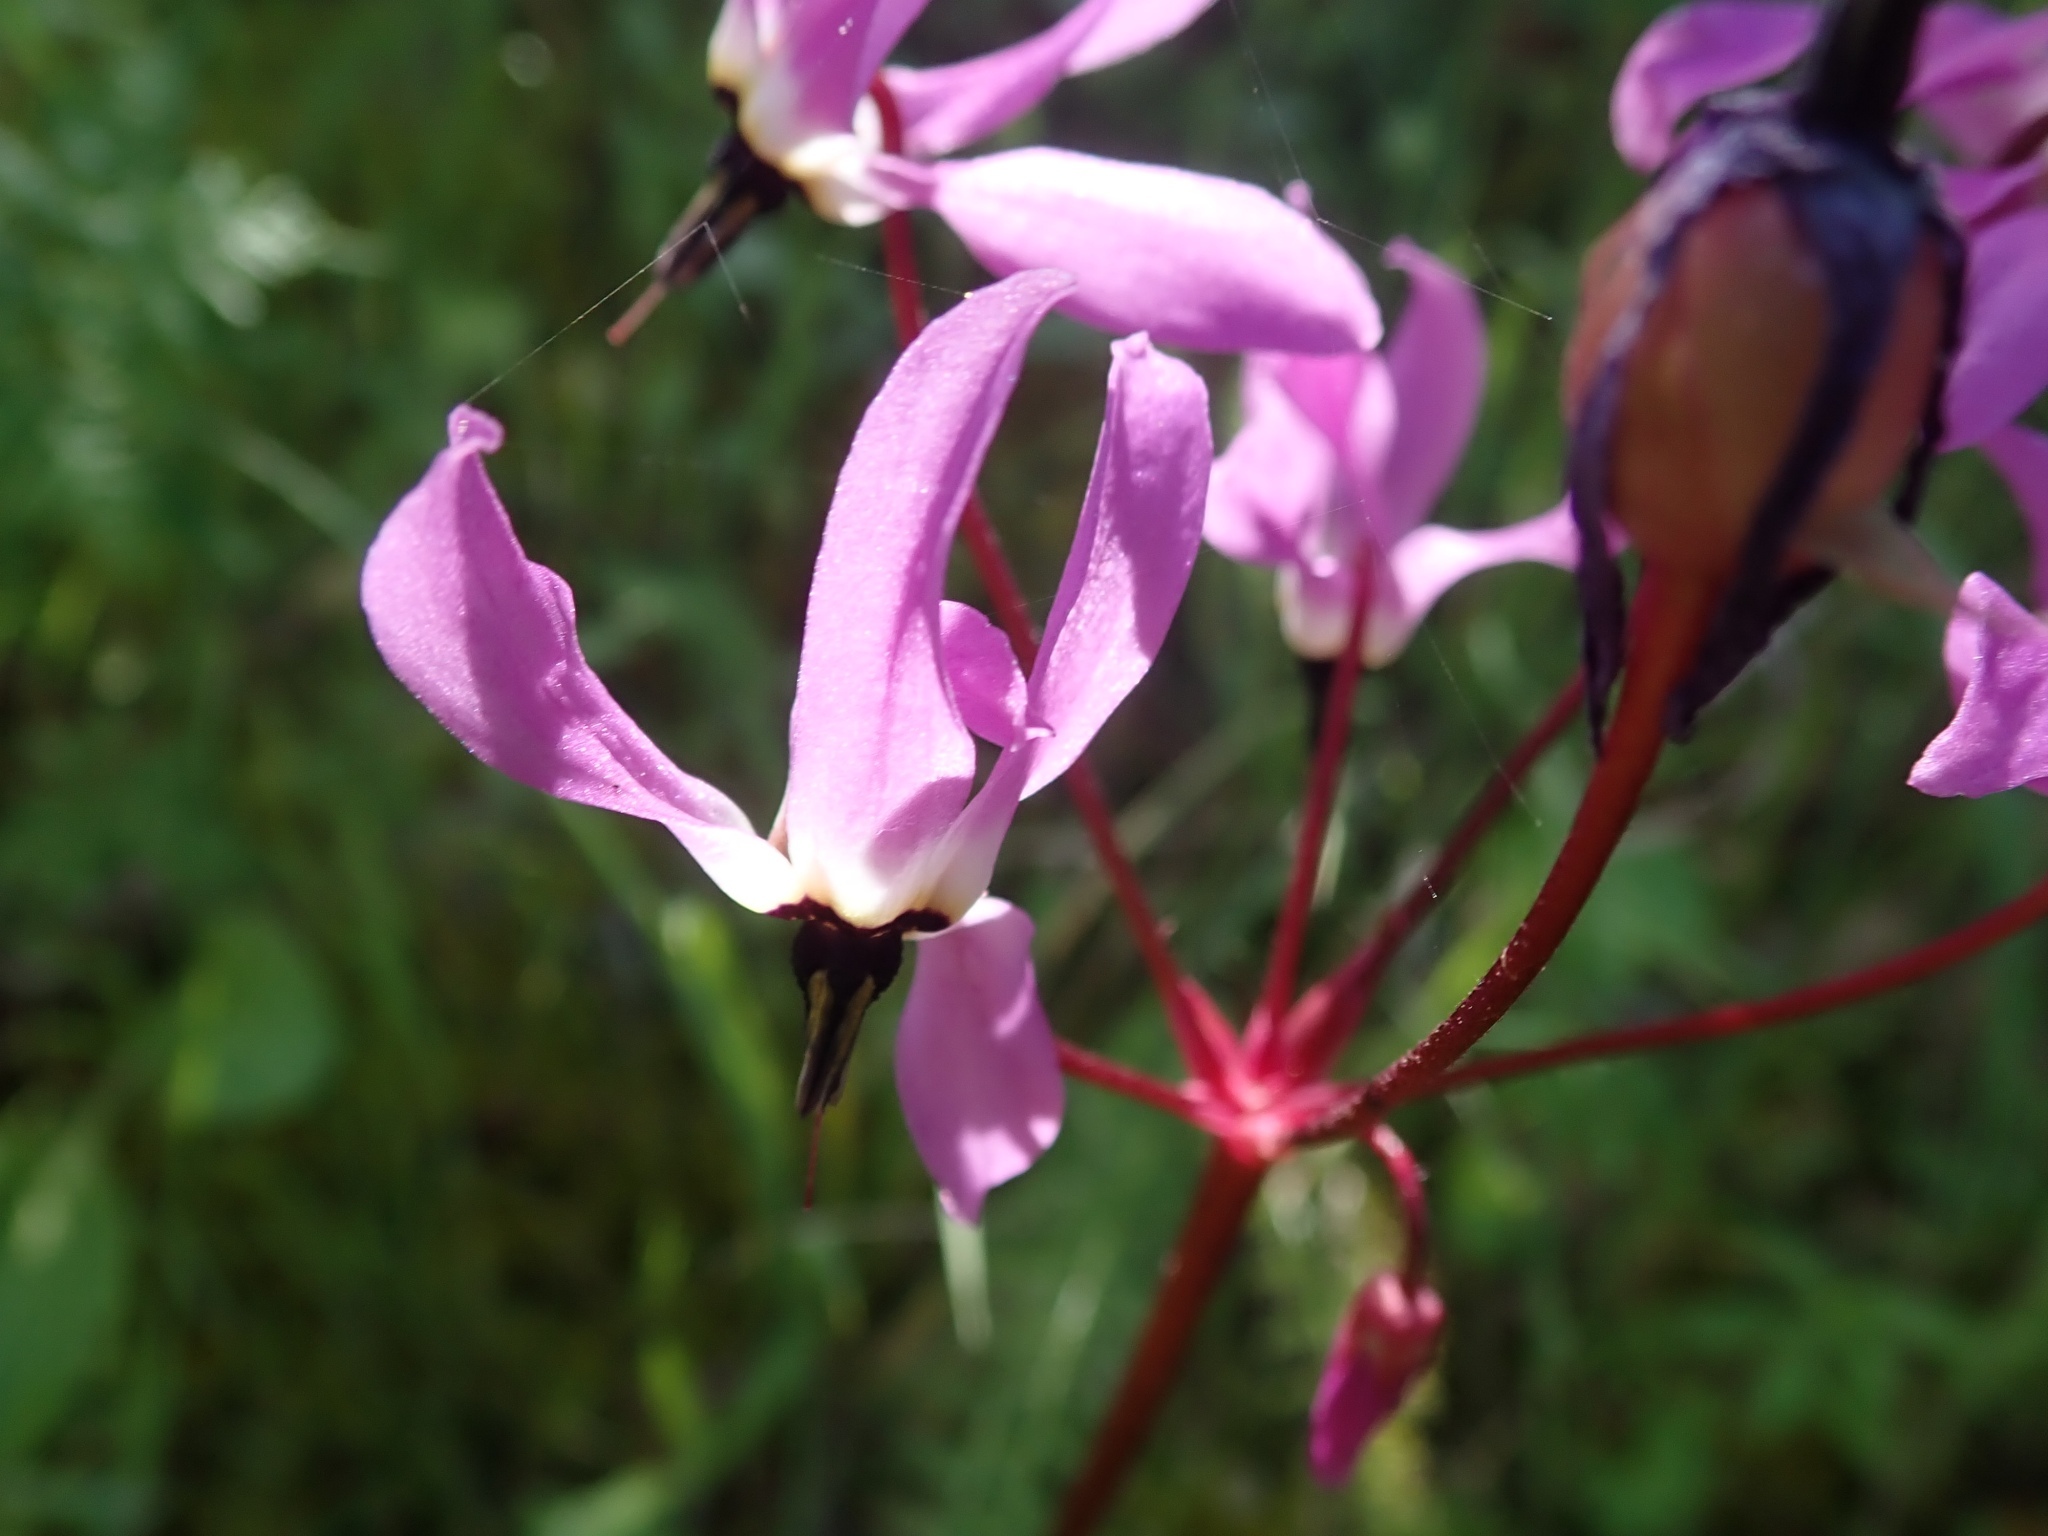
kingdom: Plantae
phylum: Tracheophyta
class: Magnoliopsida
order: Ericales
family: Primulaceae
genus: Dodecatheon
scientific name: Dodecatheon hendersonii
